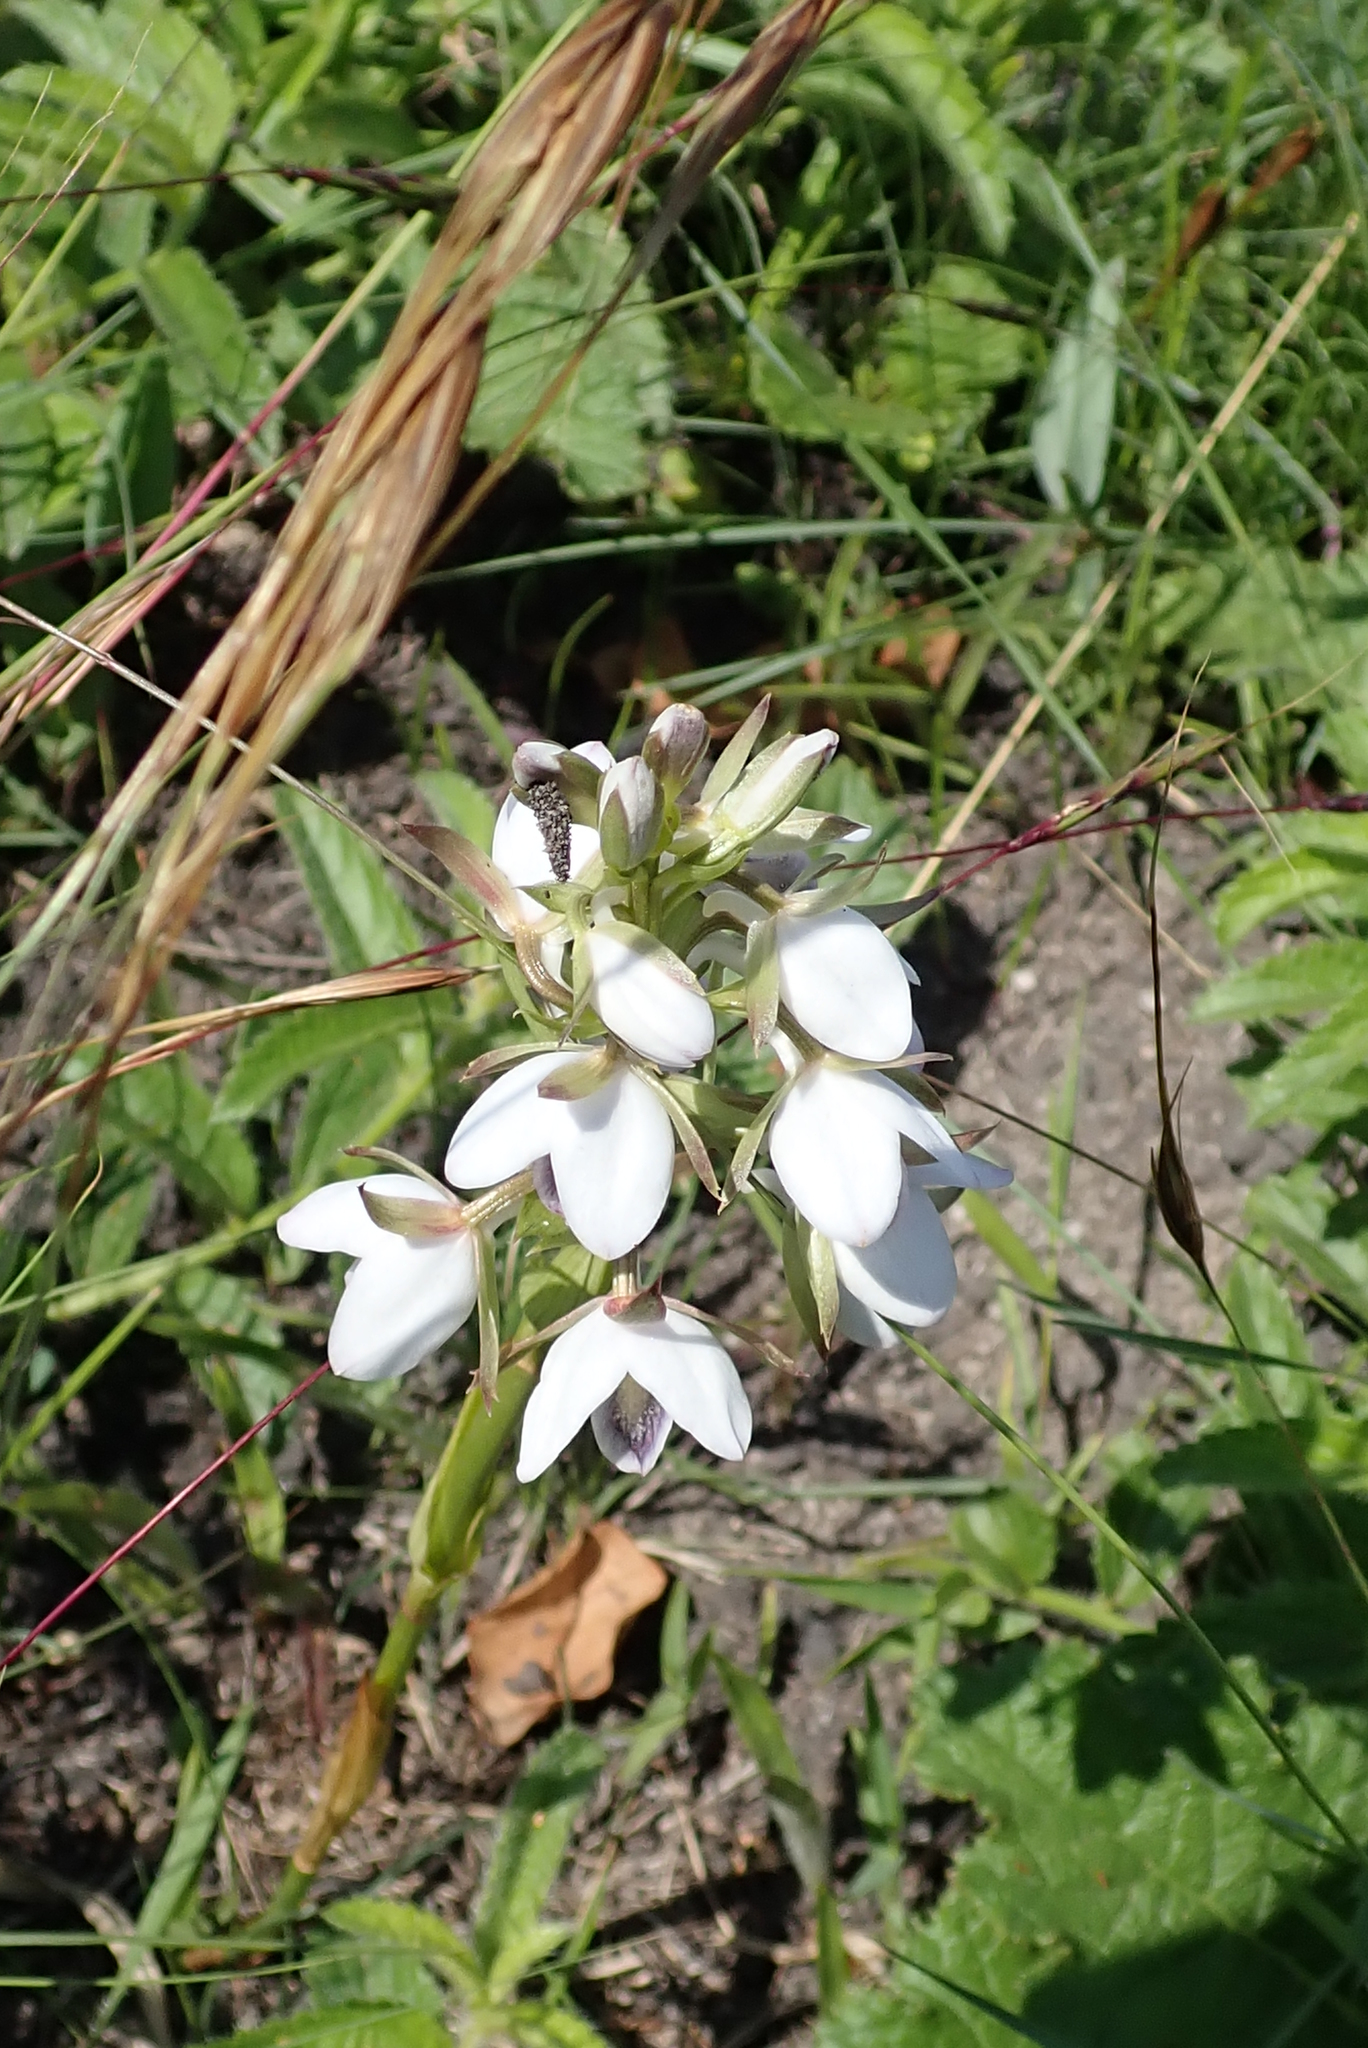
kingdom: Plantae
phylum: Tracheophyta
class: Liliopsida
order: Asparagales
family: Orchidaceae
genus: Eulophia
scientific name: Eulophia hians
